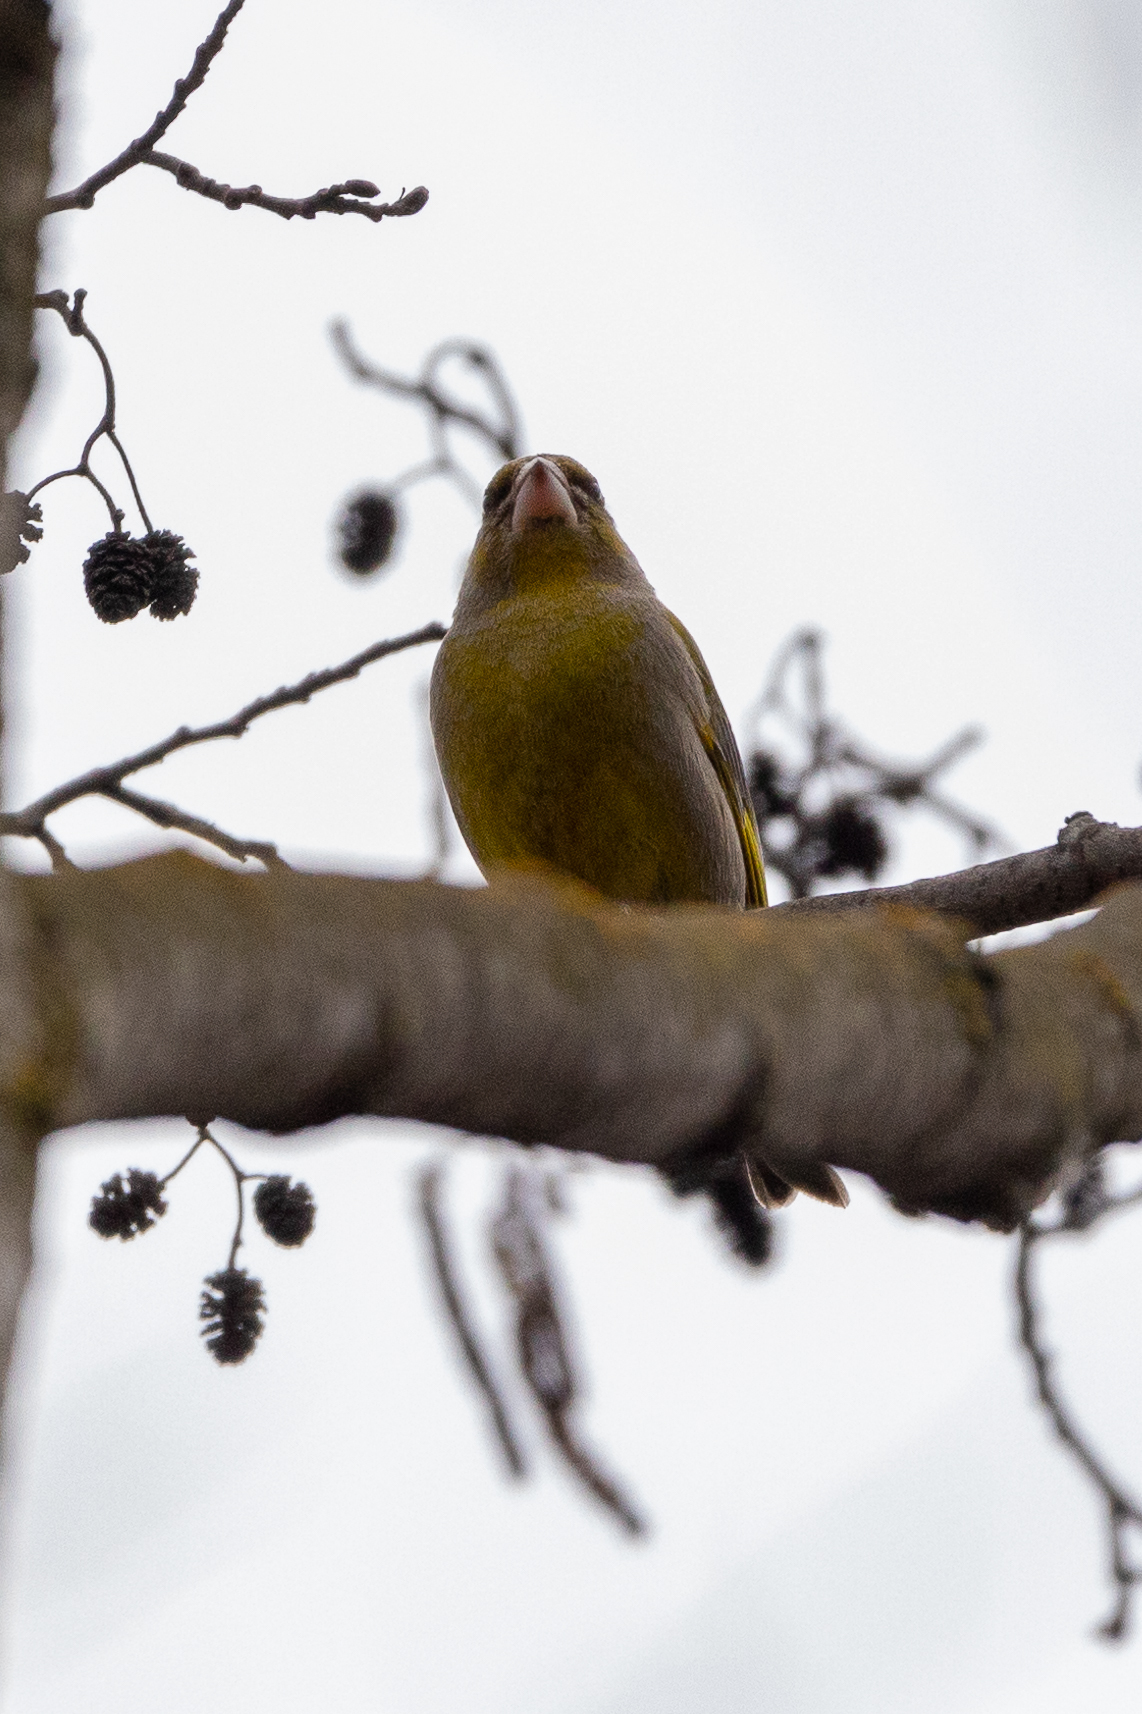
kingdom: Plantae
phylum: Tracheophyta
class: Liliopsida
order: Poales
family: Poaceae
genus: Chloris
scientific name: Chloris chloris
